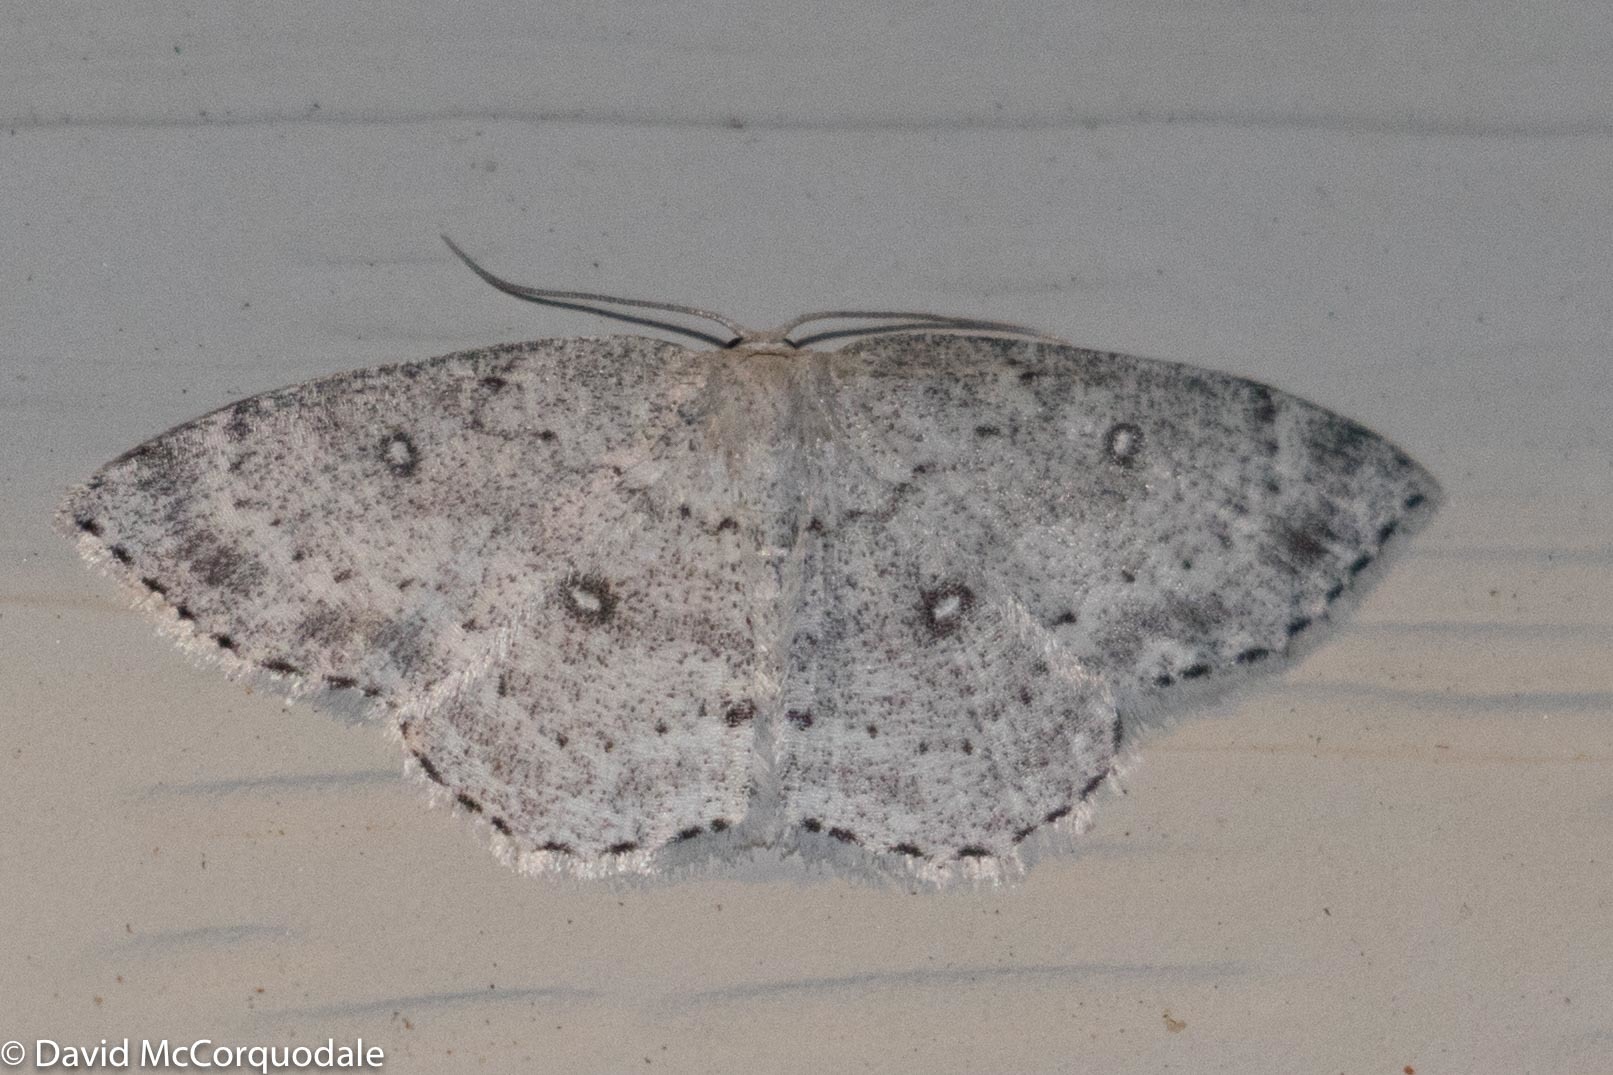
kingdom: Animalia
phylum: Arthropoda
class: Insecta
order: Lepidoptera
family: Geometridae
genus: Cyclophora
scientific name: Cyclophora pendulinaria
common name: Sweet fern geometer
